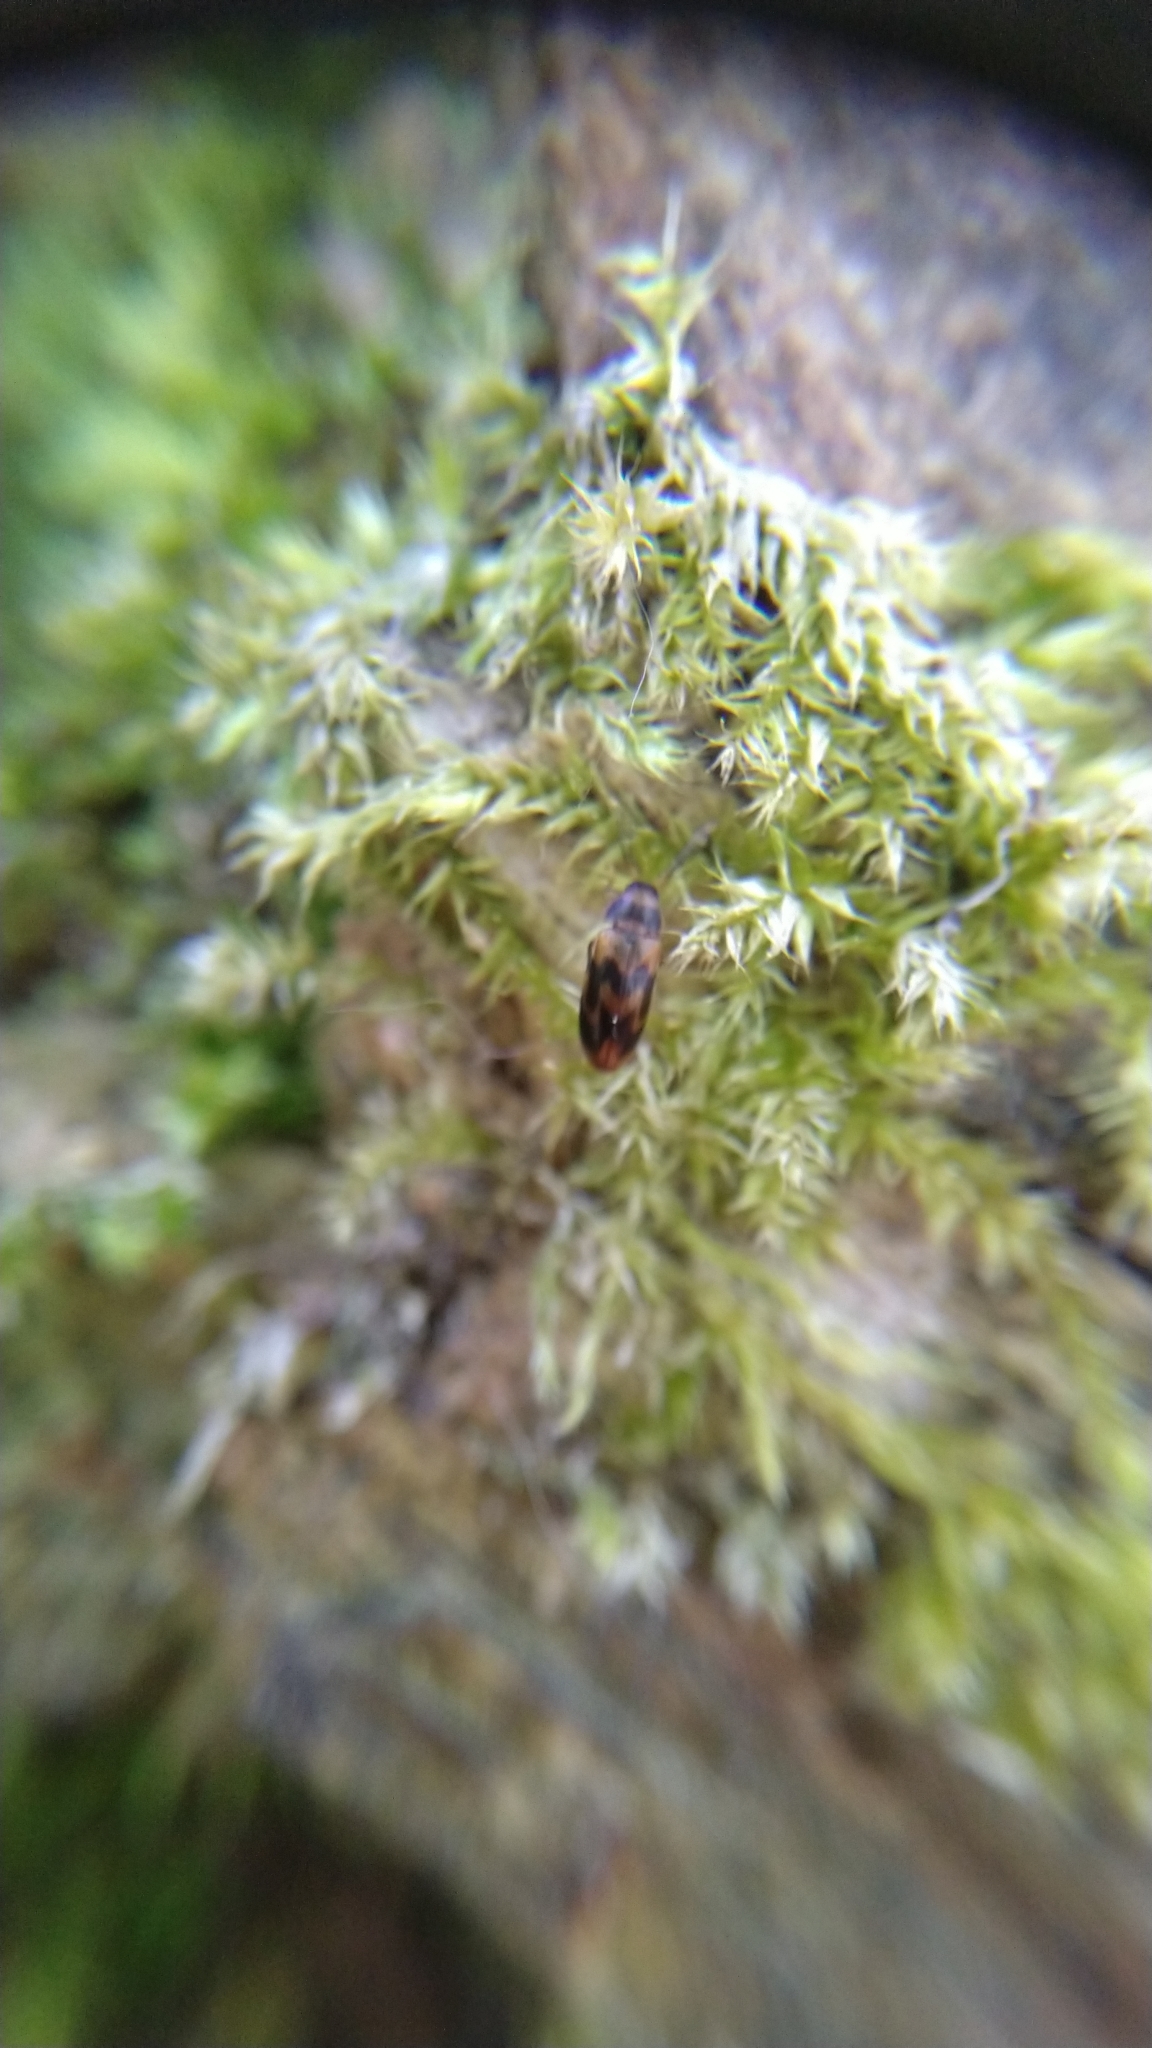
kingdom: Animalia
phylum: Arthropoda
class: Insecta
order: Coleoptera
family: Melandryidae
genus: Abdera
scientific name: Abdera flexuosa
